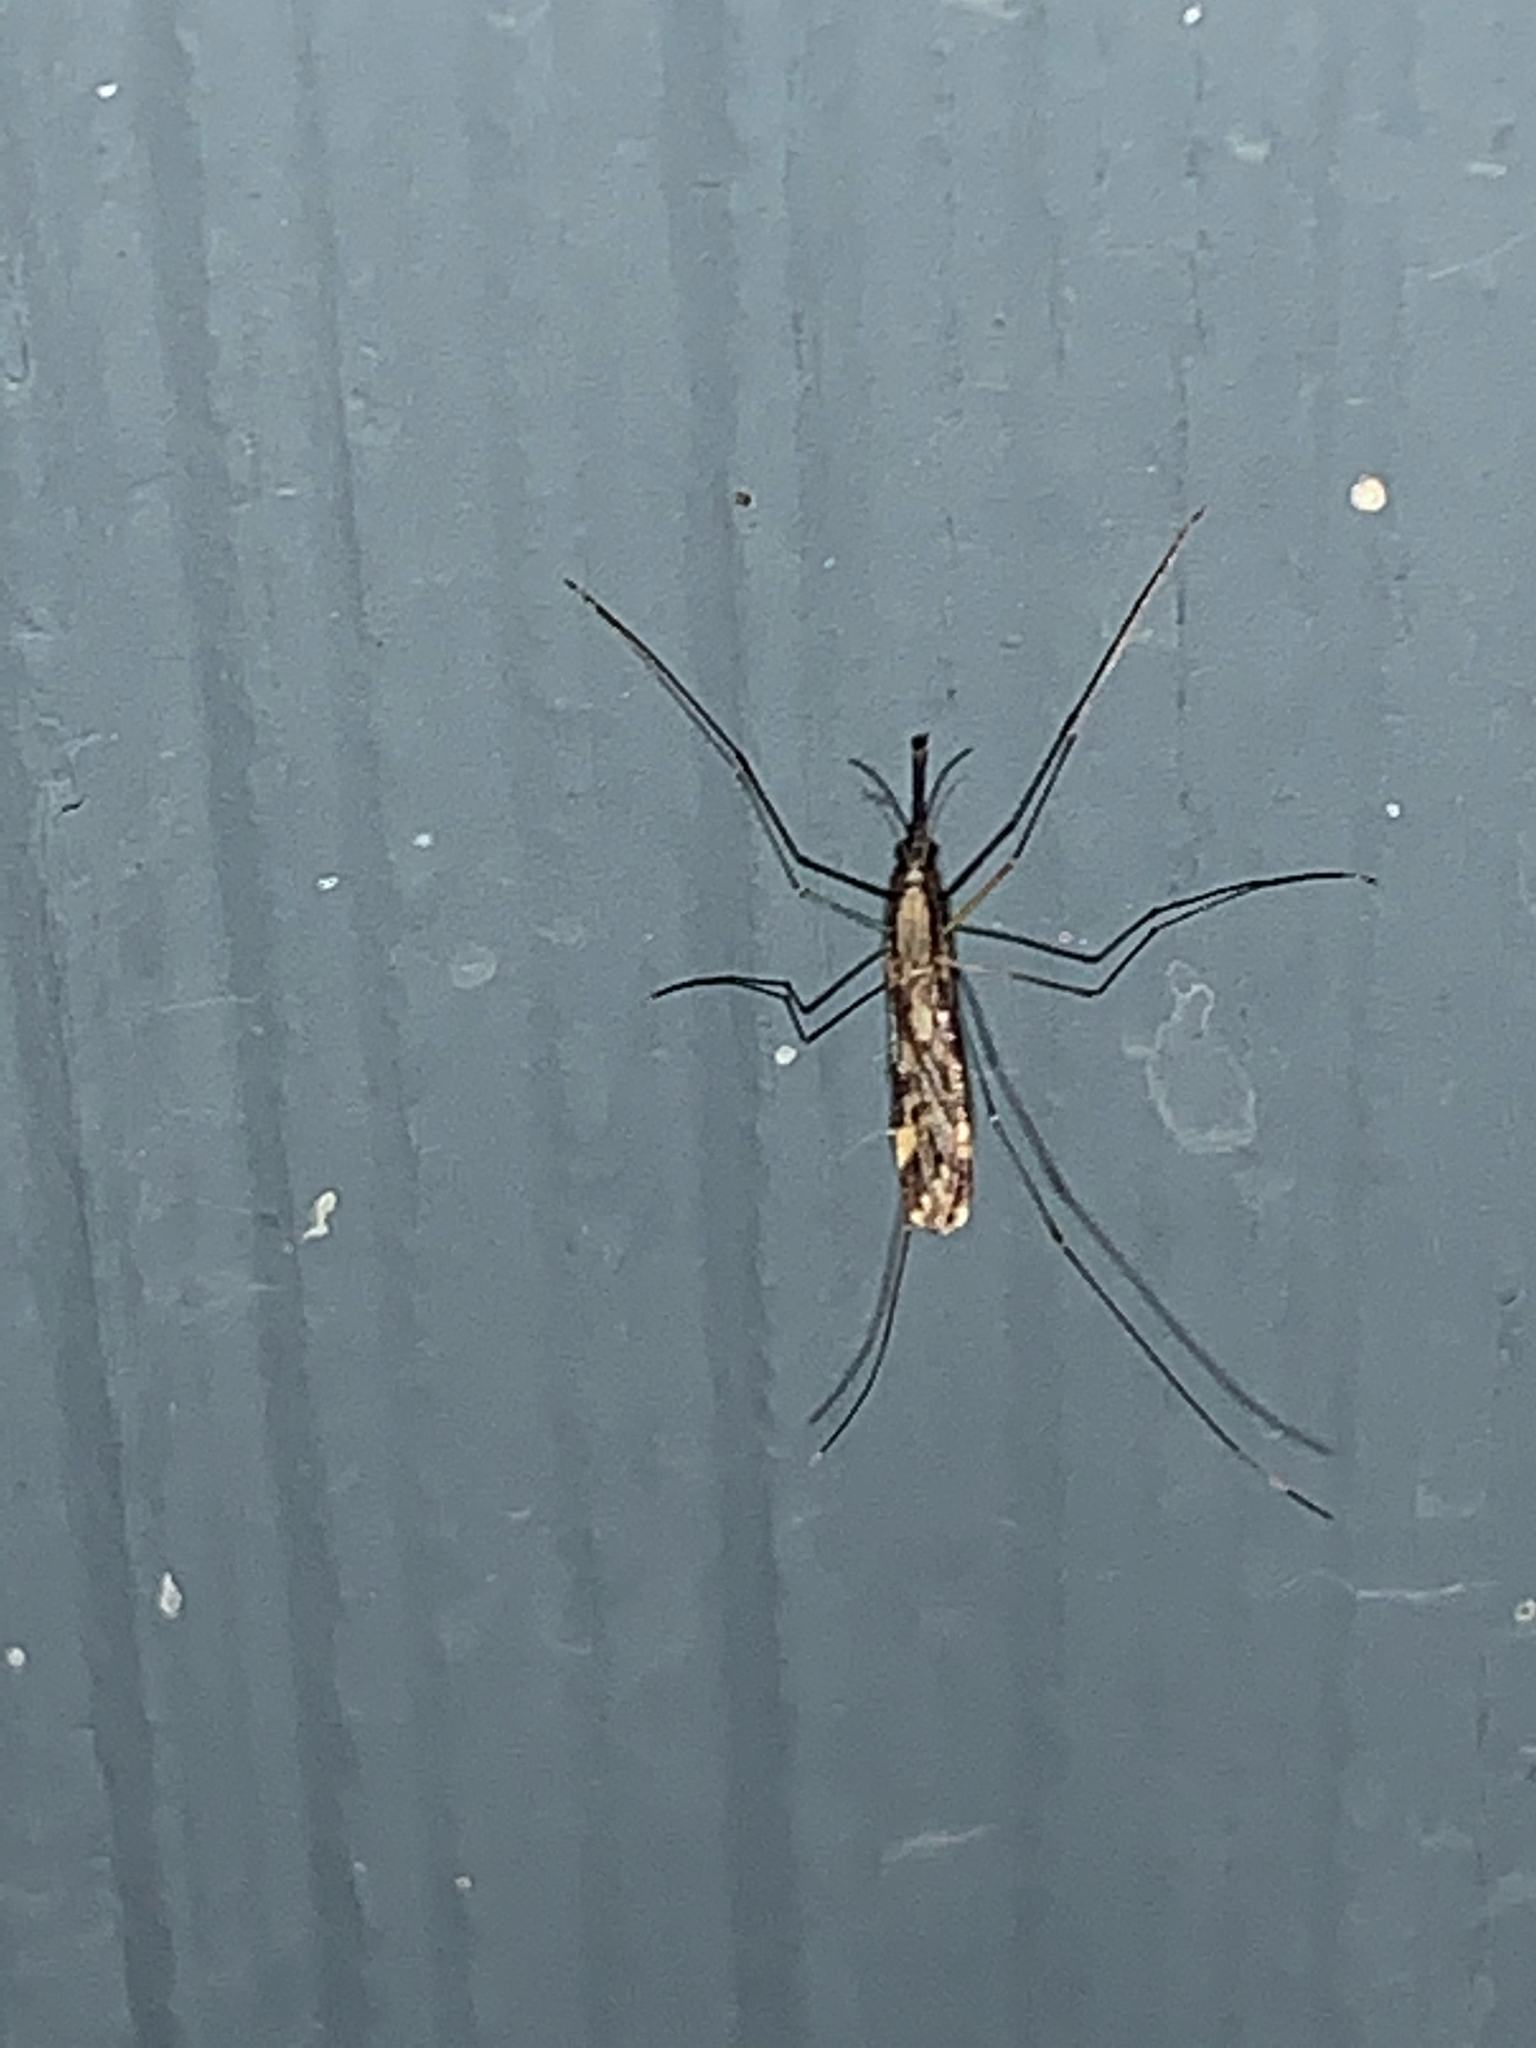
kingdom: Animalia
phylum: Arthropoda
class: Insecta
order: Diptera
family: Culicidae
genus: Anopheles
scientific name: Anopheles punctipennis
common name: Woodland malaria mosquito
